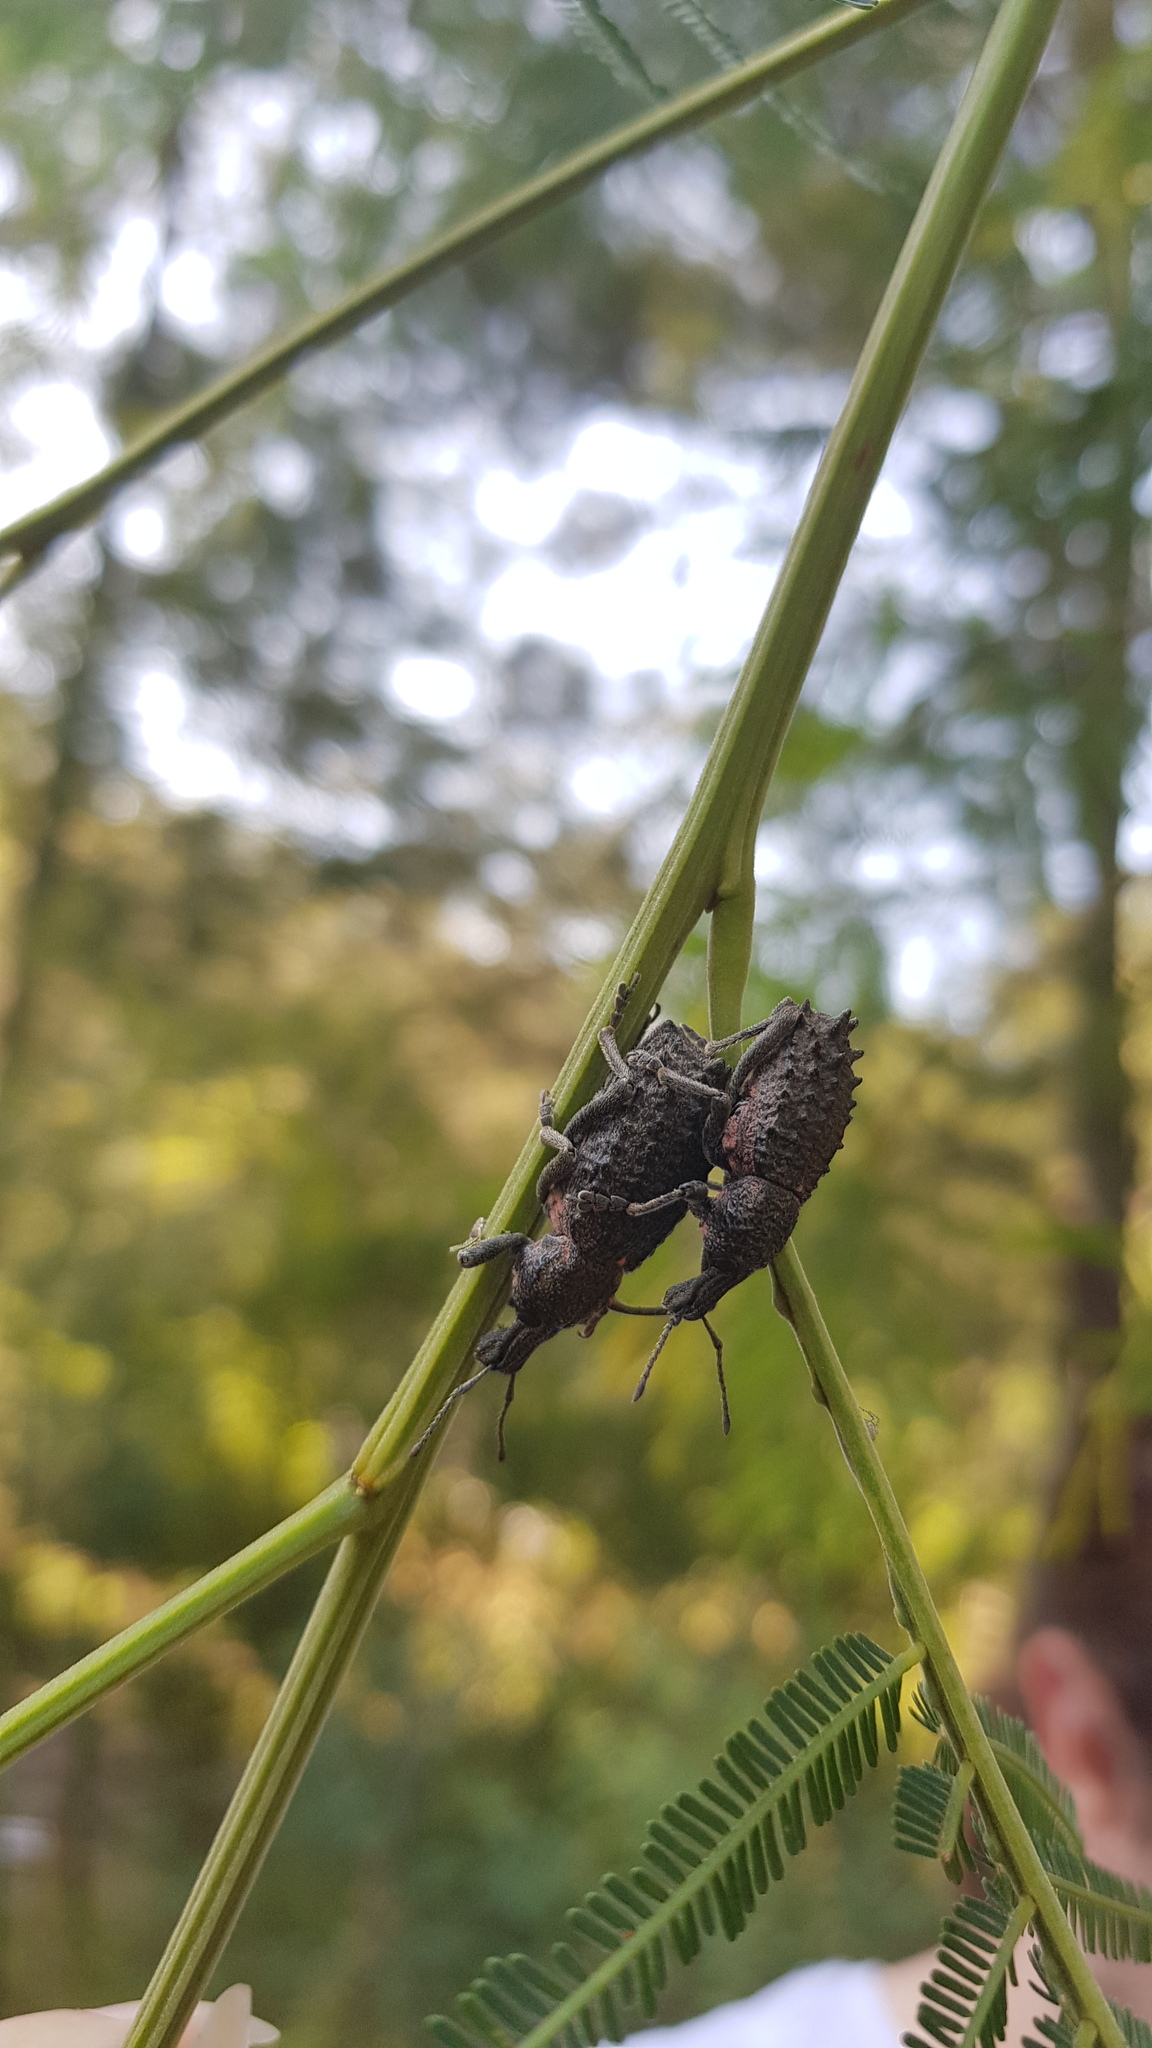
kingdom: Animalia
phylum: Arthropoda
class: Insecta
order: Coleoptera
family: Curculionidae
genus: Leptopius
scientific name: Leptopius duponti
